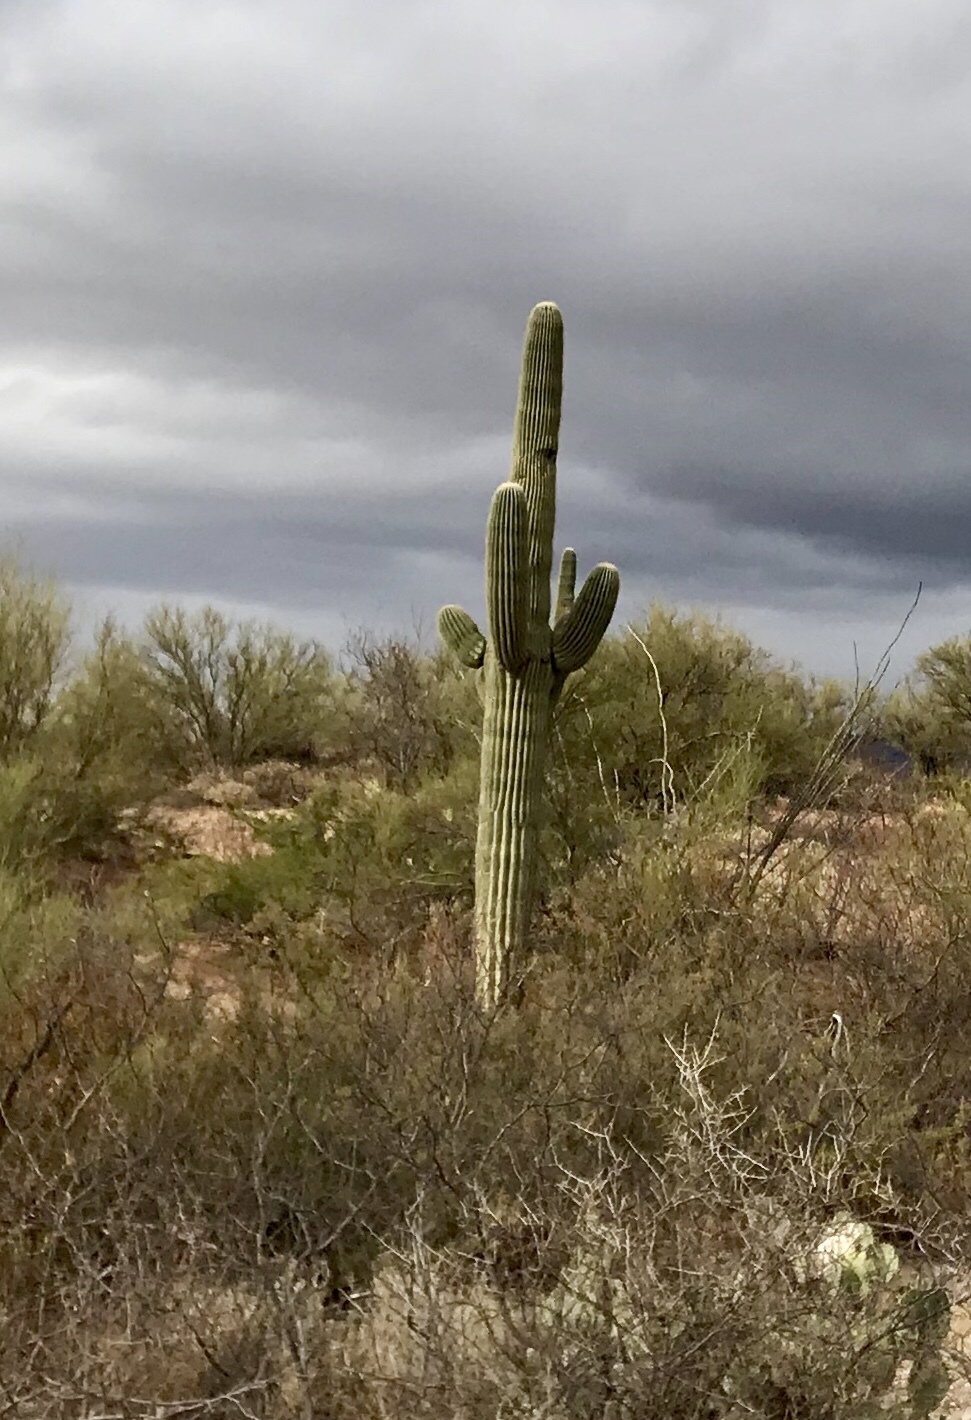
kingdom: Plantae
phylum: Tracheophyta
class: Magnoliopsida
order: Caryophyllales
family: Cactaceae
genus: Carnegiea
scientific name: Carnegiea gigantea
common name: Saguaro
